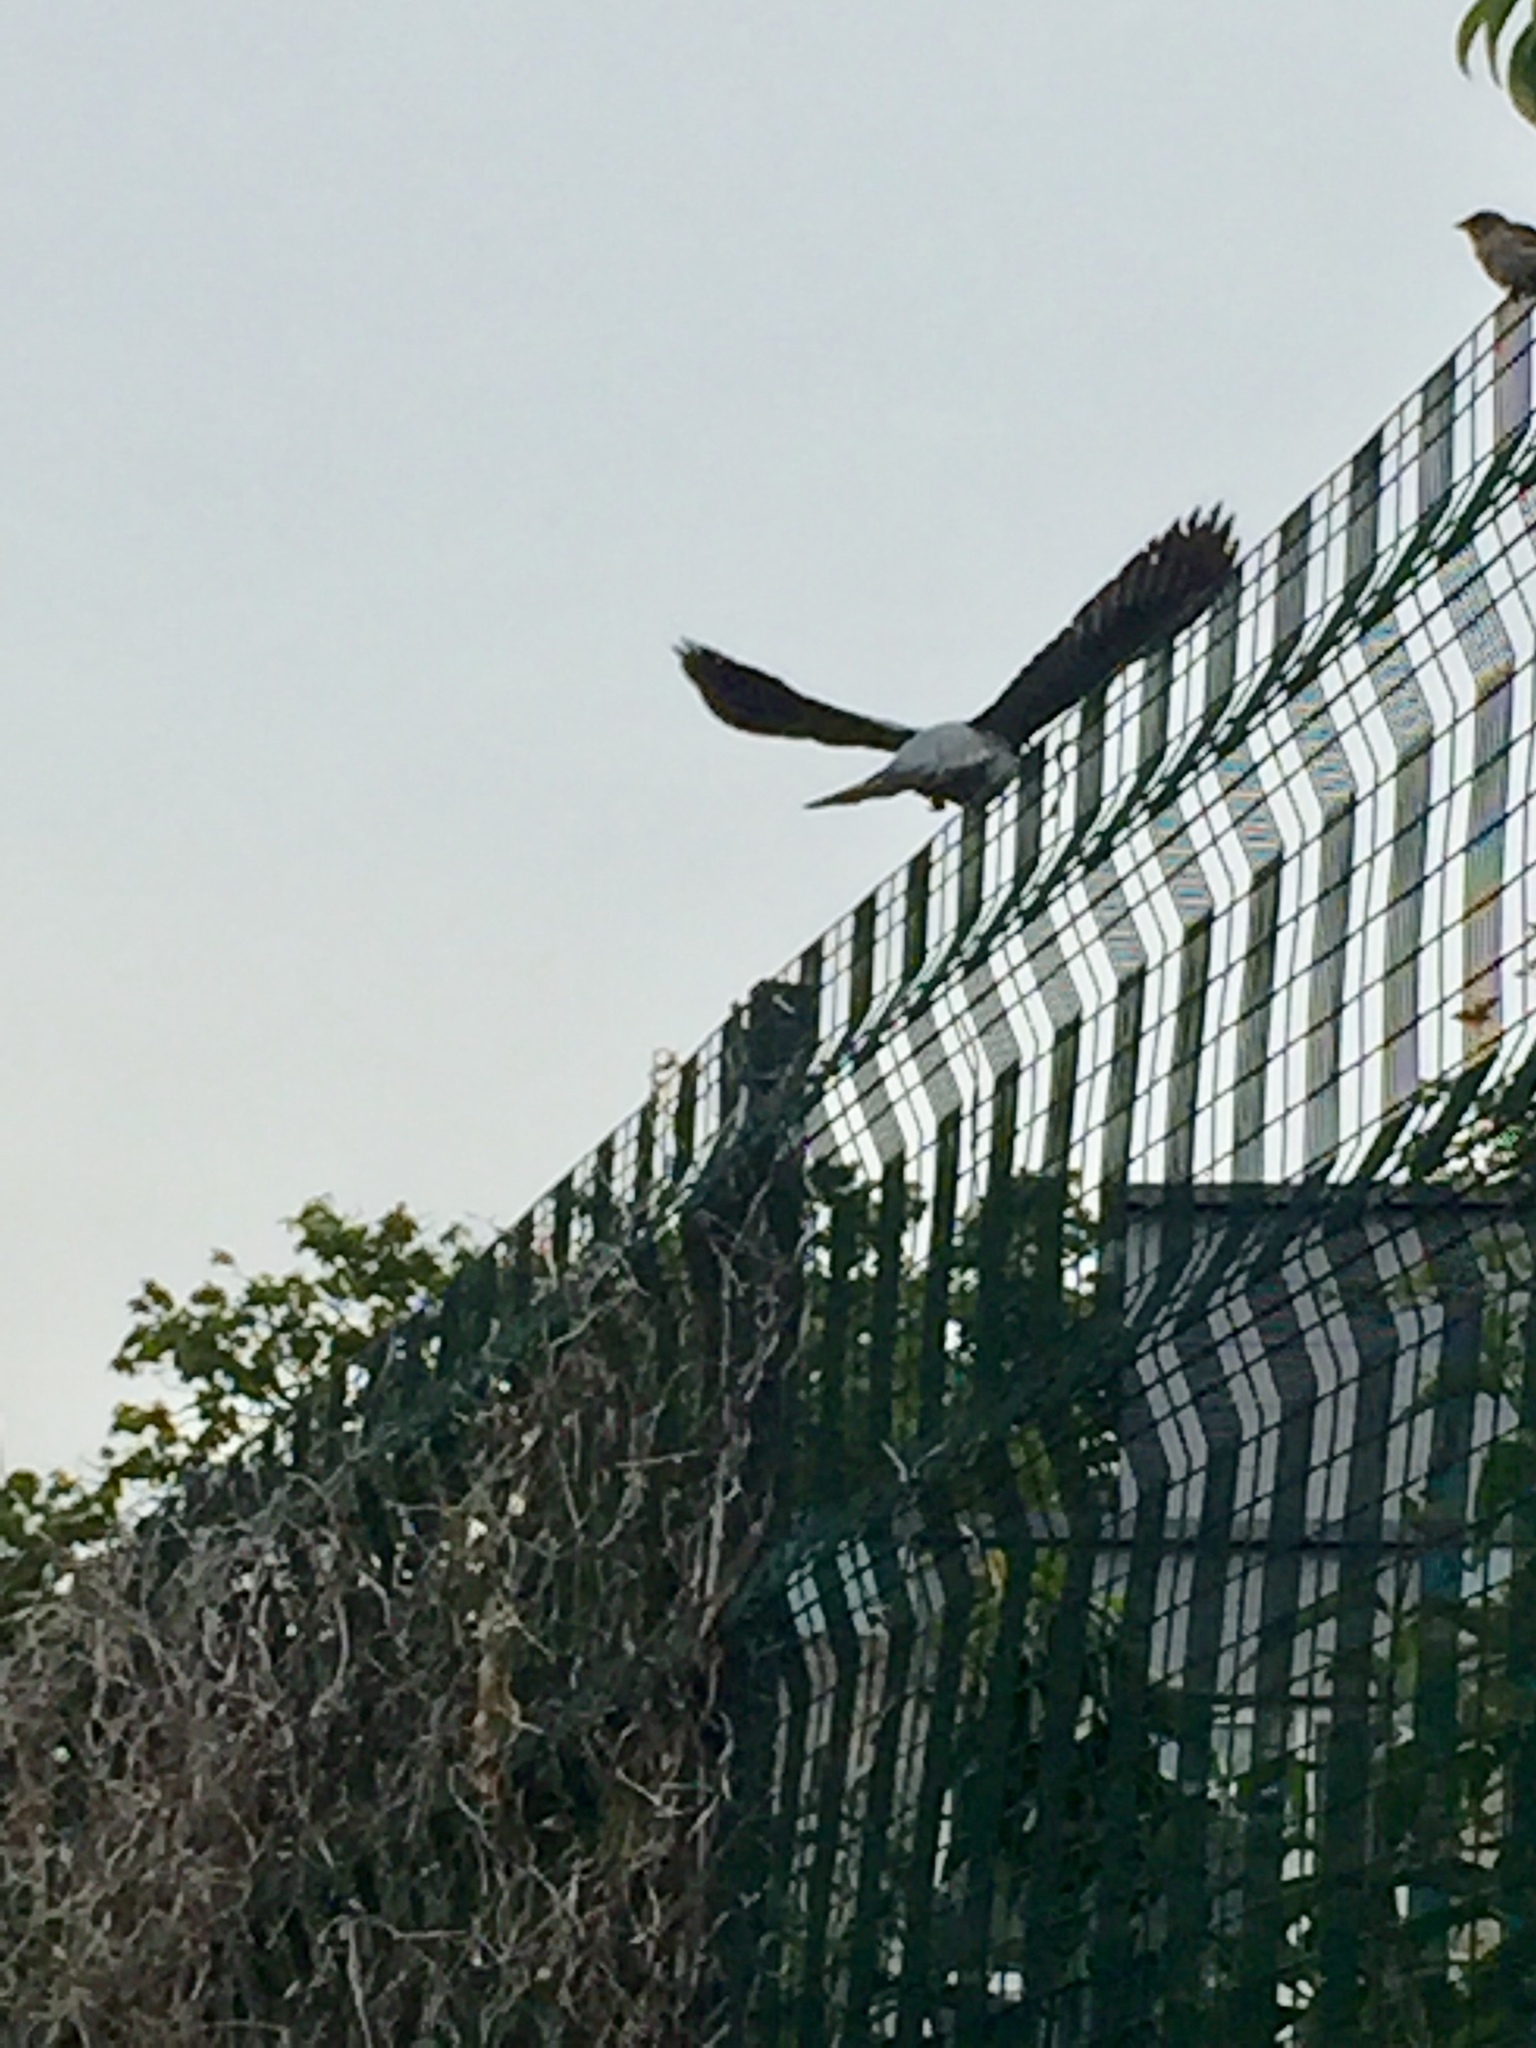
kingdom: Animalia
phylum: Chordata
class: Aves
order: Columbiformes
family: Columbidae
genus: Columba
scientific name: Columba palumbus
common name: Common wood pigeon
